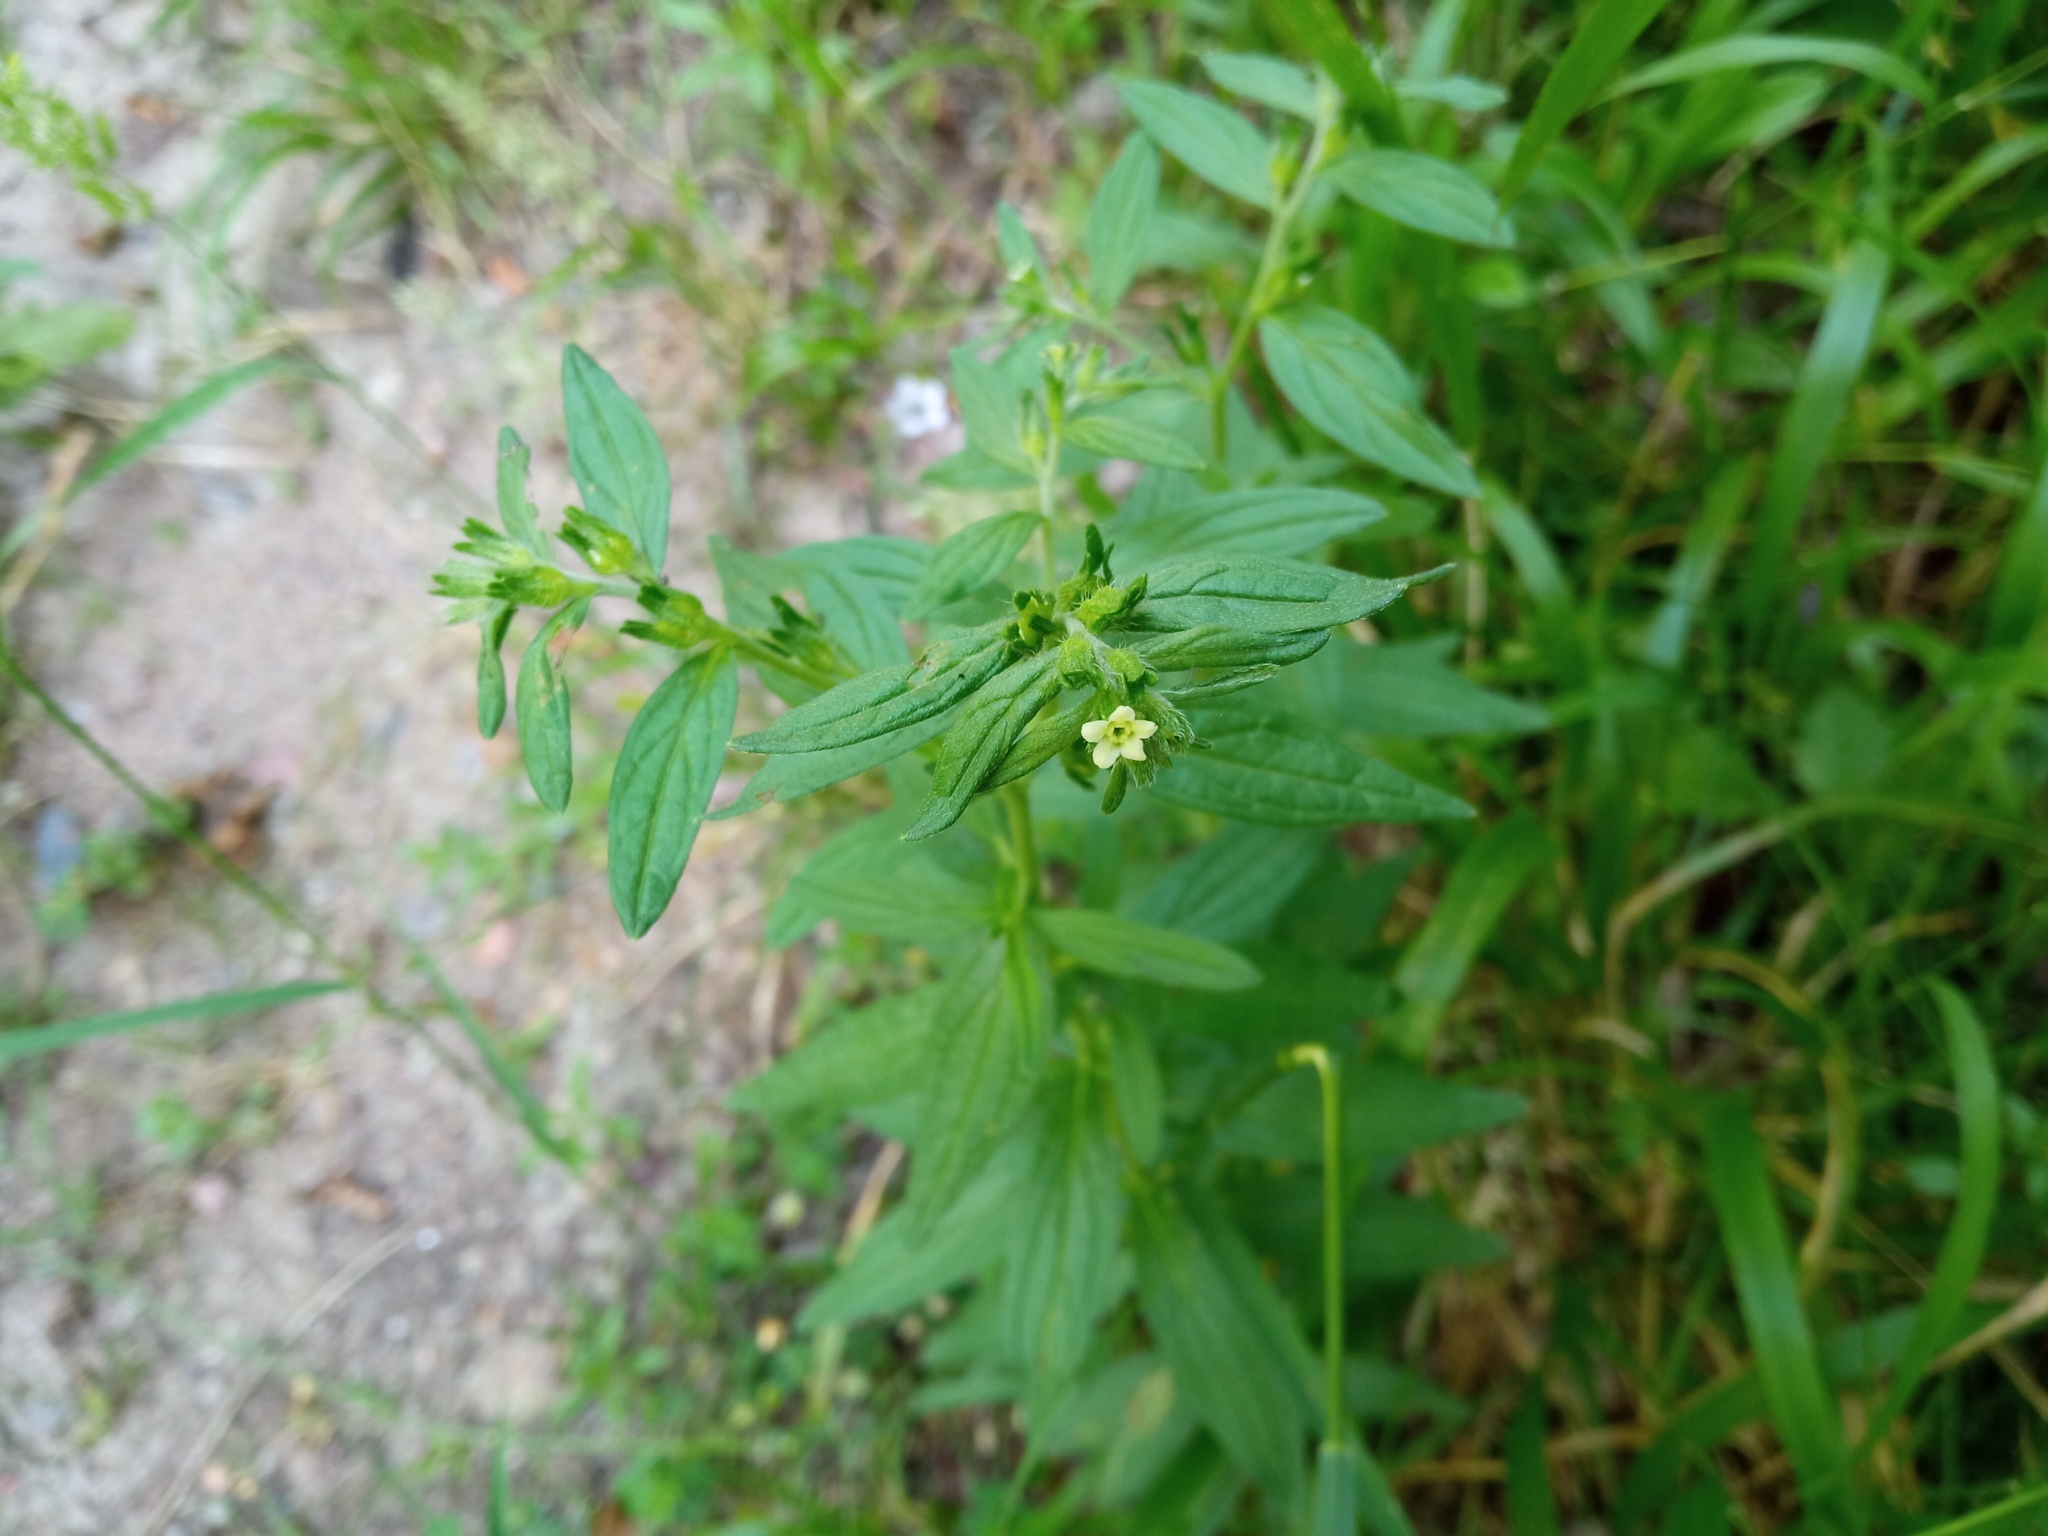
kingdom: Plantae
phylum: Tracheophyta
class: Magnoliopsida
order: Boraginales
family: Boraginaceae
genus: Lithospermum
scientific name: Lithospermum officinale
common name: Common gromwell
